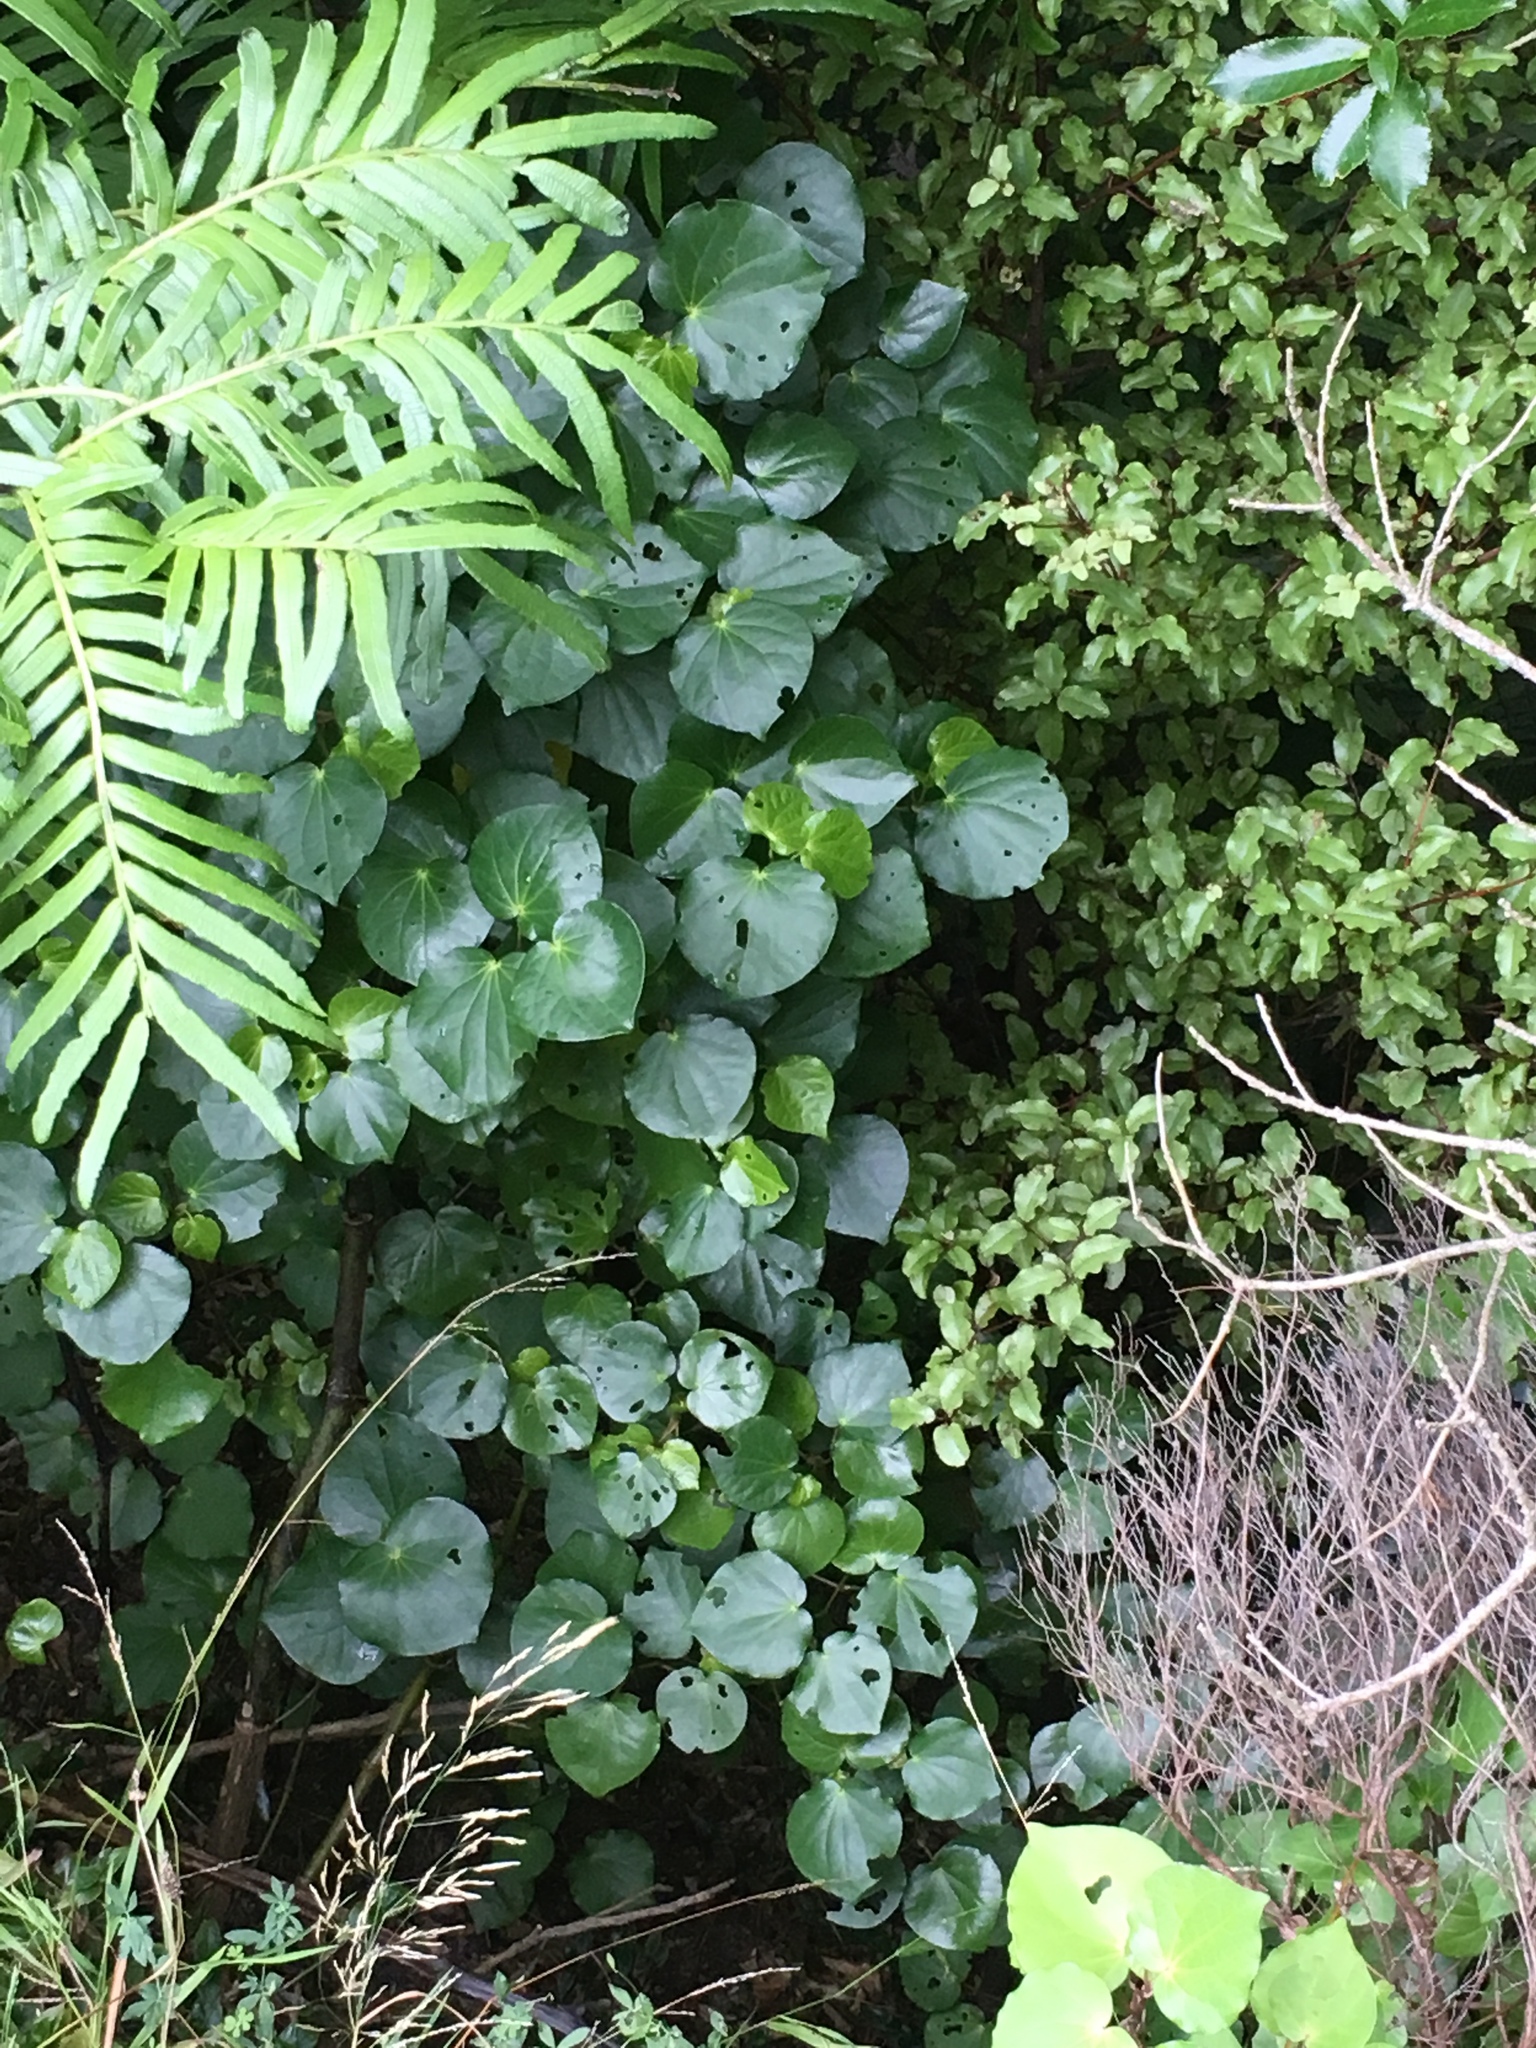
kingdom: Plantae
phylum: Tracheophyta
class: Magnoliopsida
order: Piperales
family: Piperaceae
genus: Macropiper
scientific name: Macropiper excelsum
